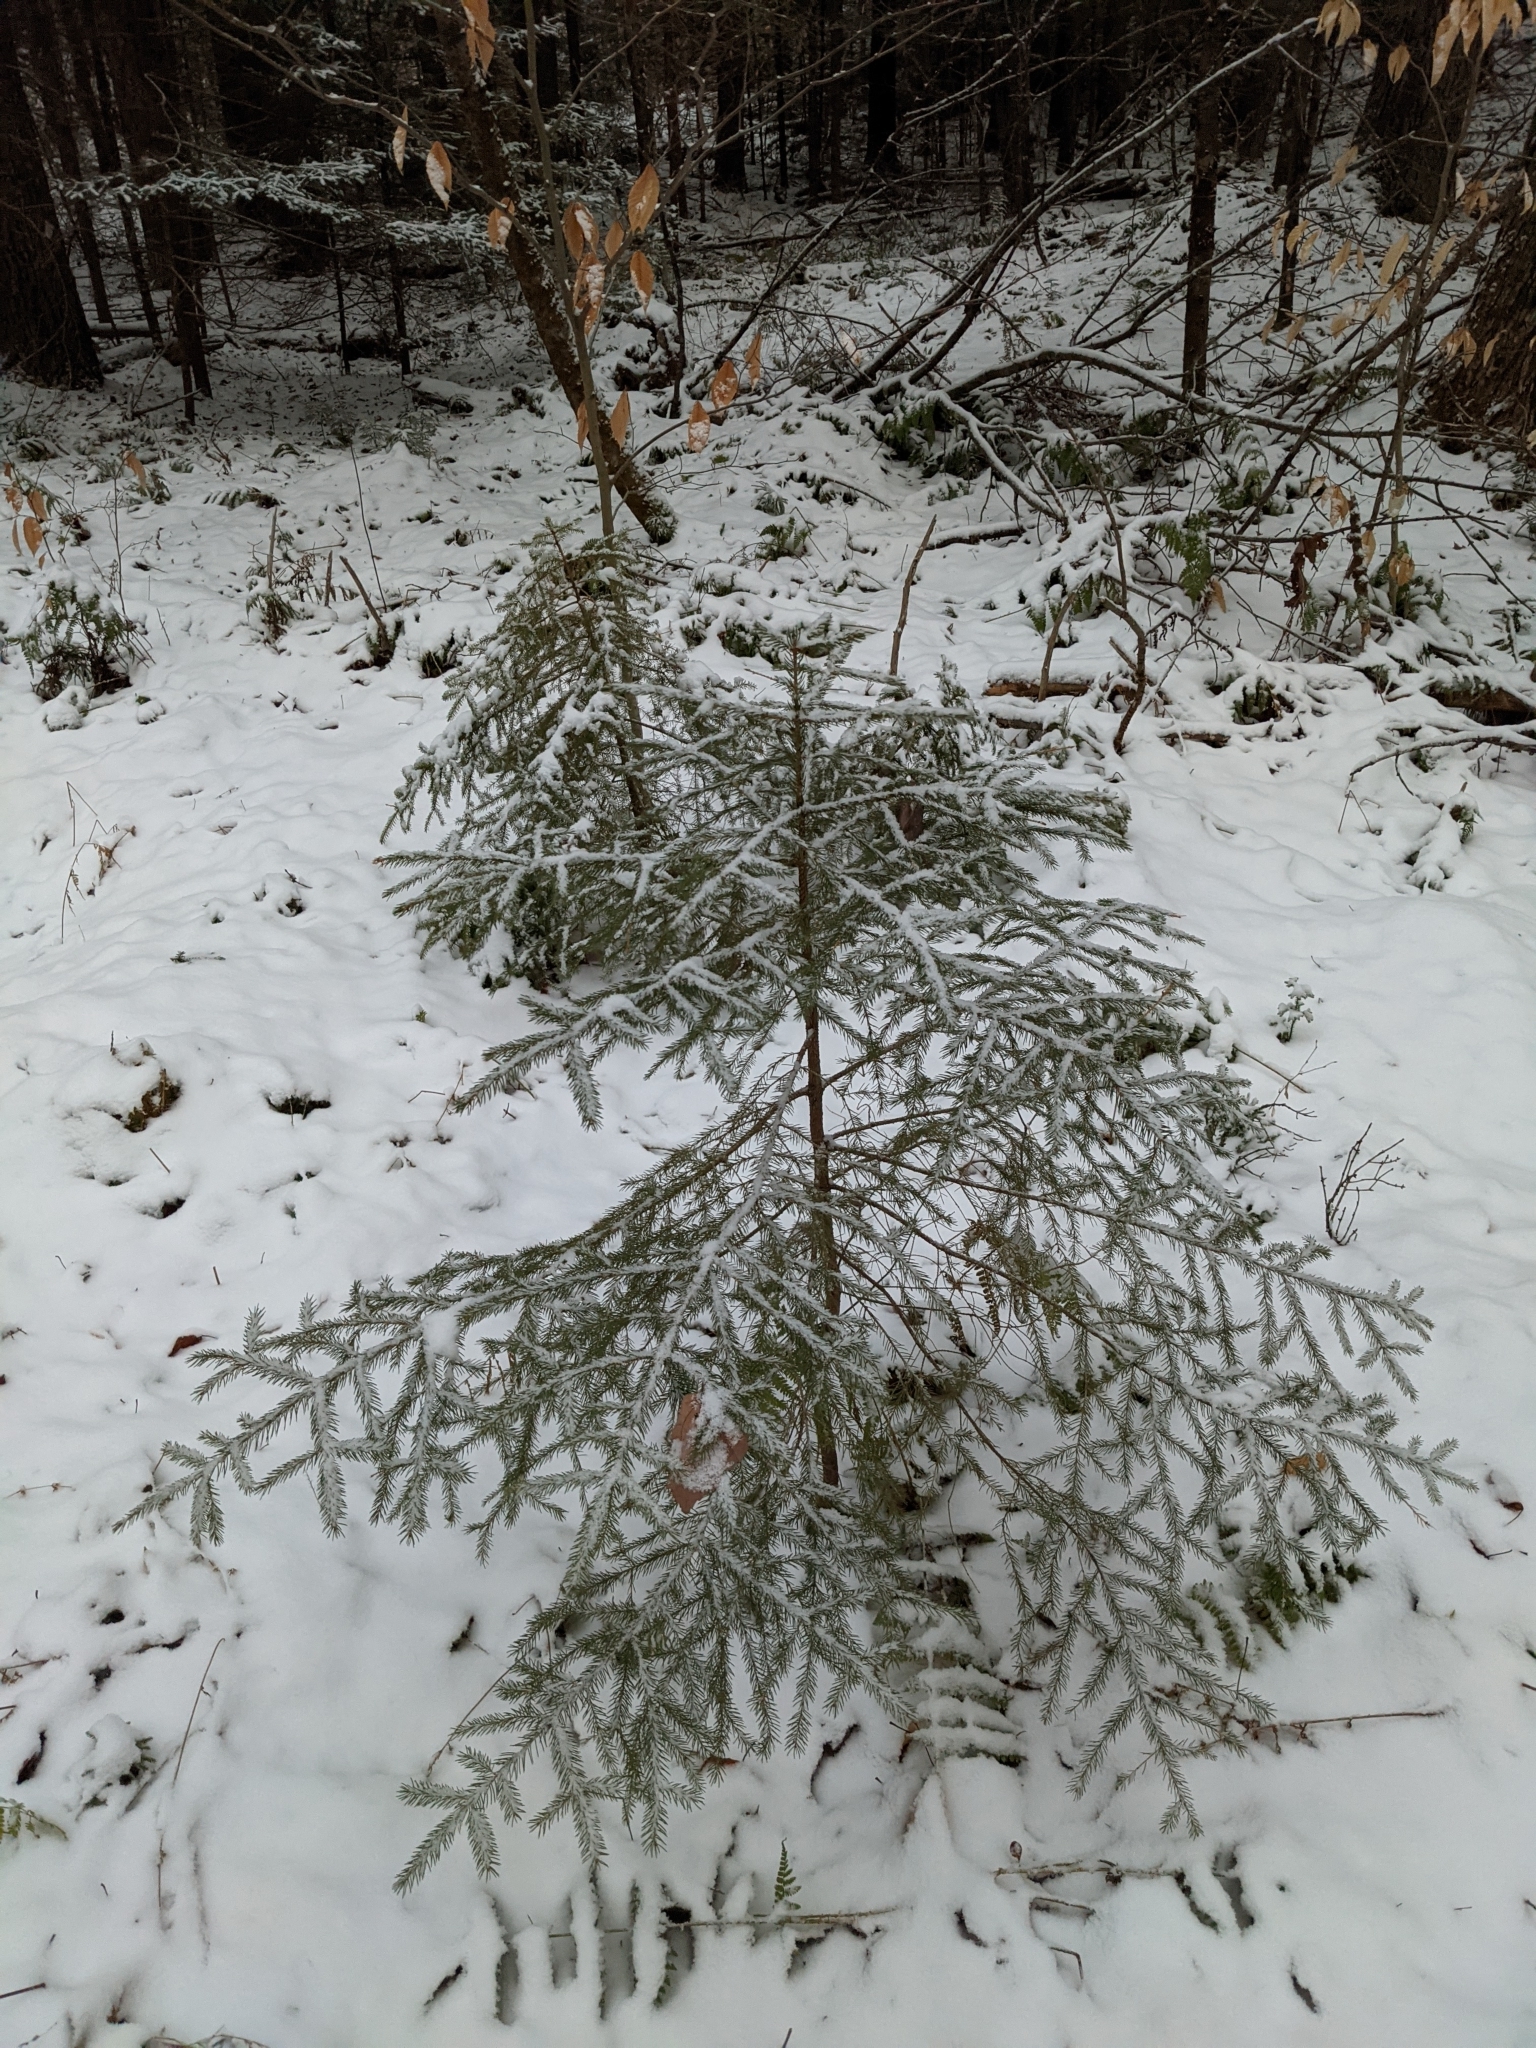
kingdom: Plantae
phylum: Tracheophyta
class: Pinopsida
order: Pinales
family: Pinaceae
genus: Picea
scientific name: Picea rubens
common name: Red spruce
